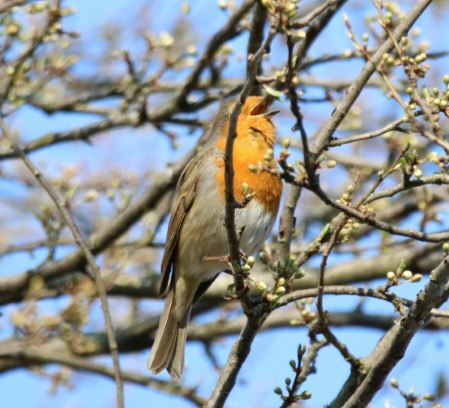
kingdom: Animalia
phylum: Chordata
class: Aves
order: Passeriformes
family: Muscicapidae
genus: Erithacus
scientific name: Erithacus rubecula
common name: European robin
